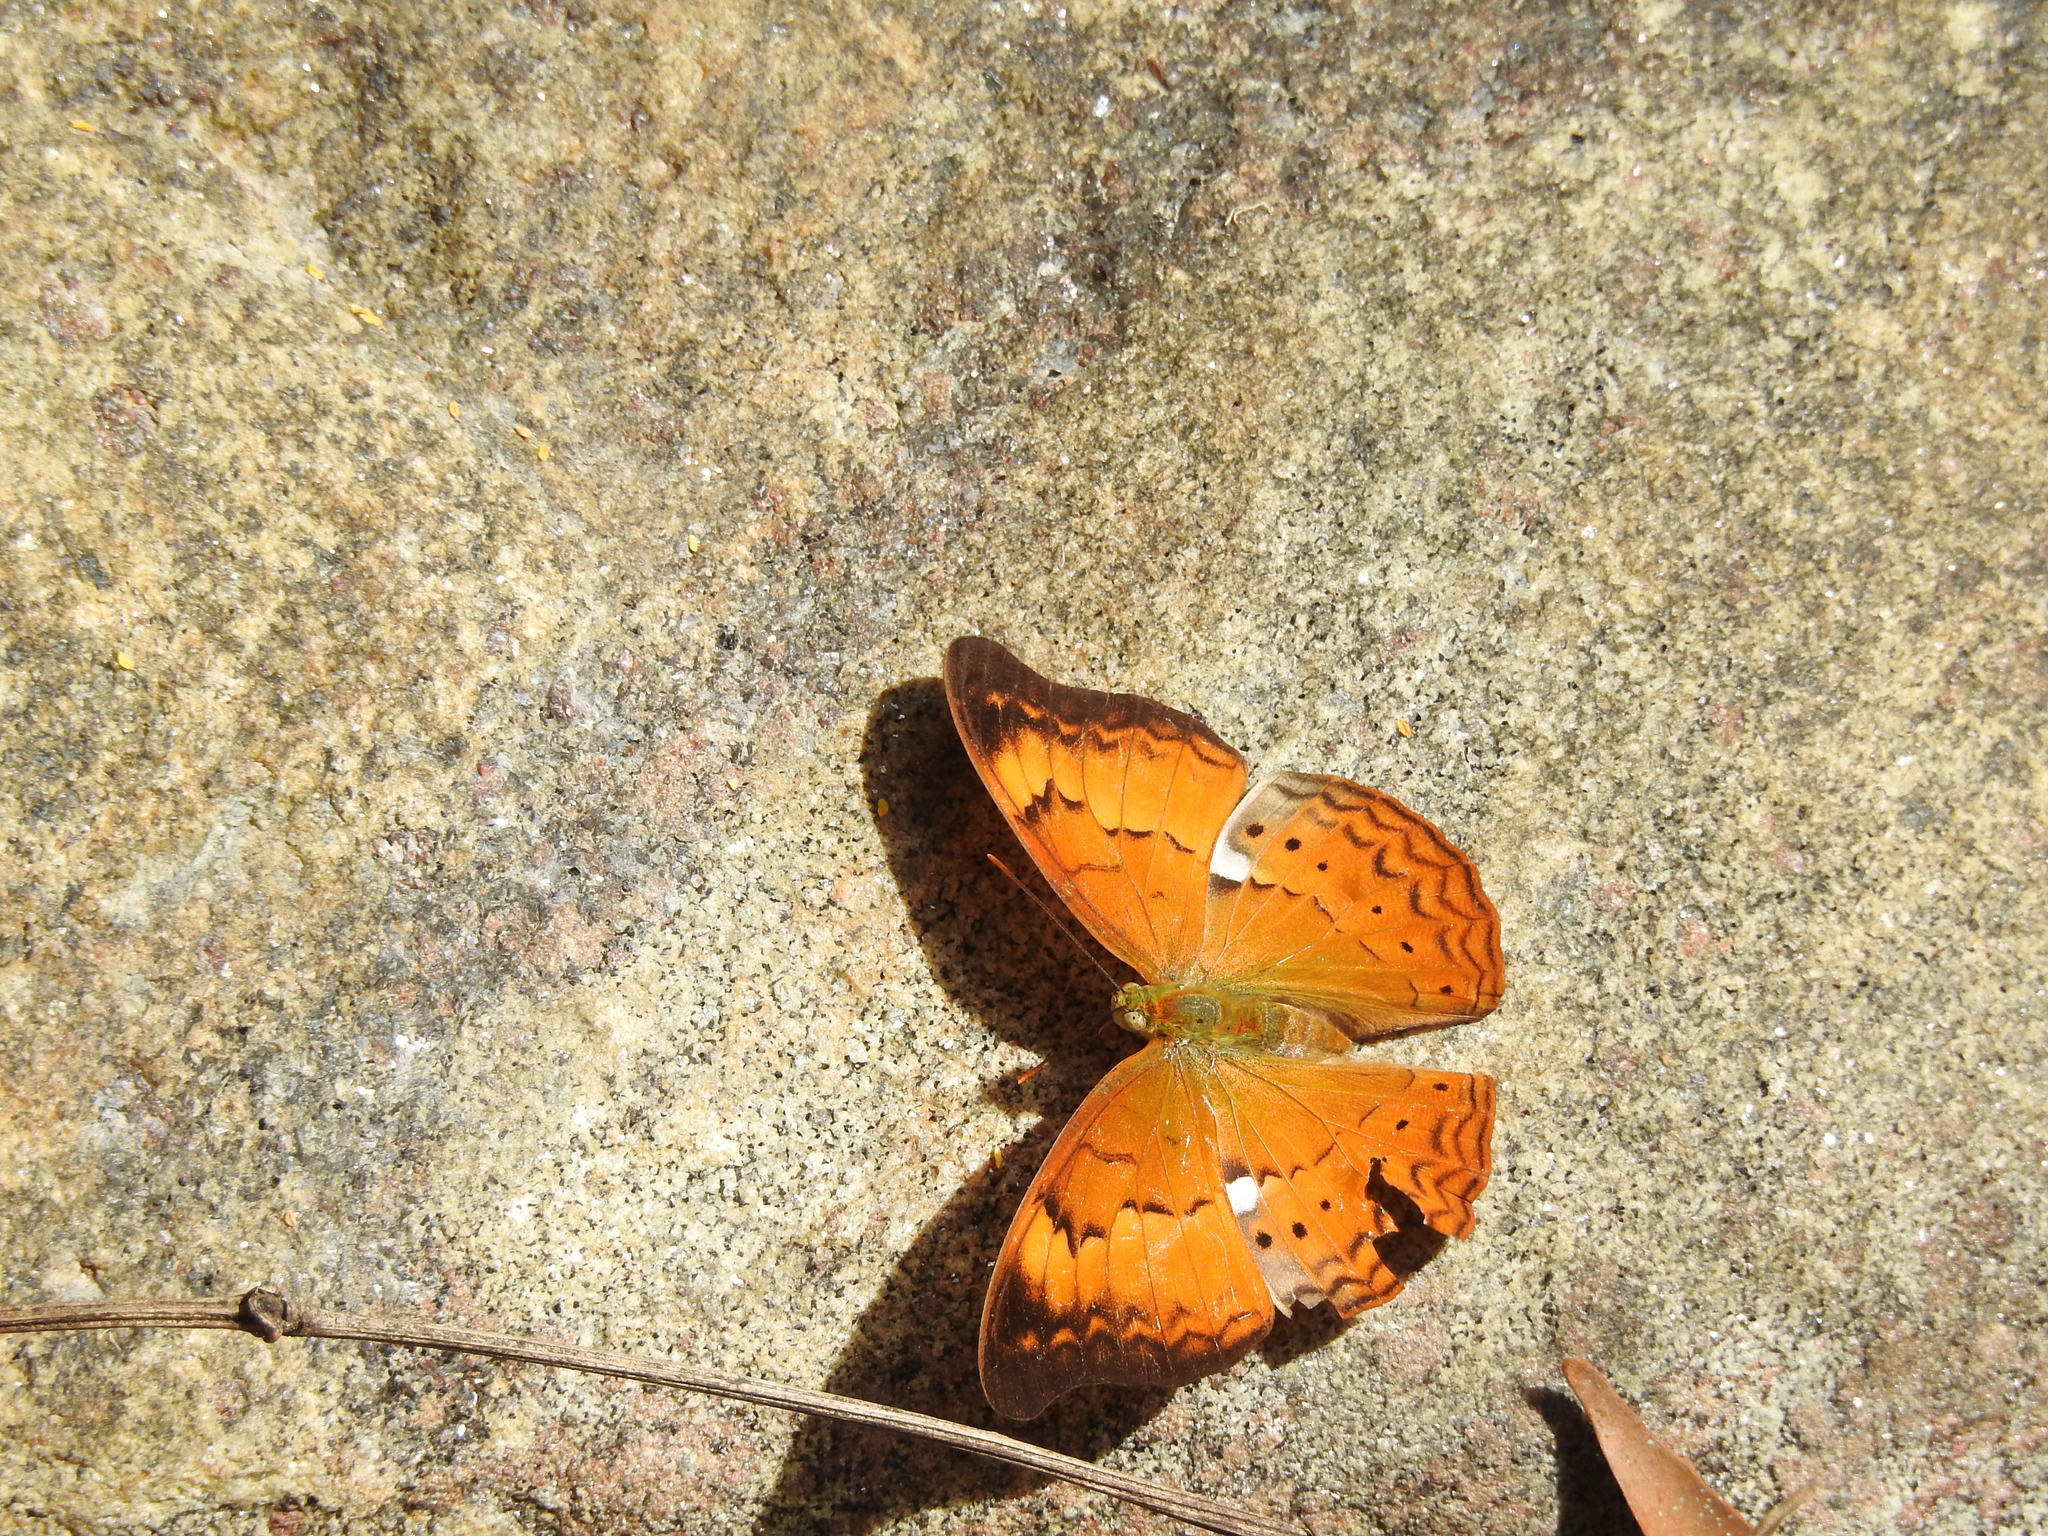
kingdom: Animalia
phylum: Arthropoda
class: Insecta
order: Lepidoptera
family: Nymphalidae
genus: Cirrochroa
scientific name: Cirrochroa thais
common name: Tamil yeoman
